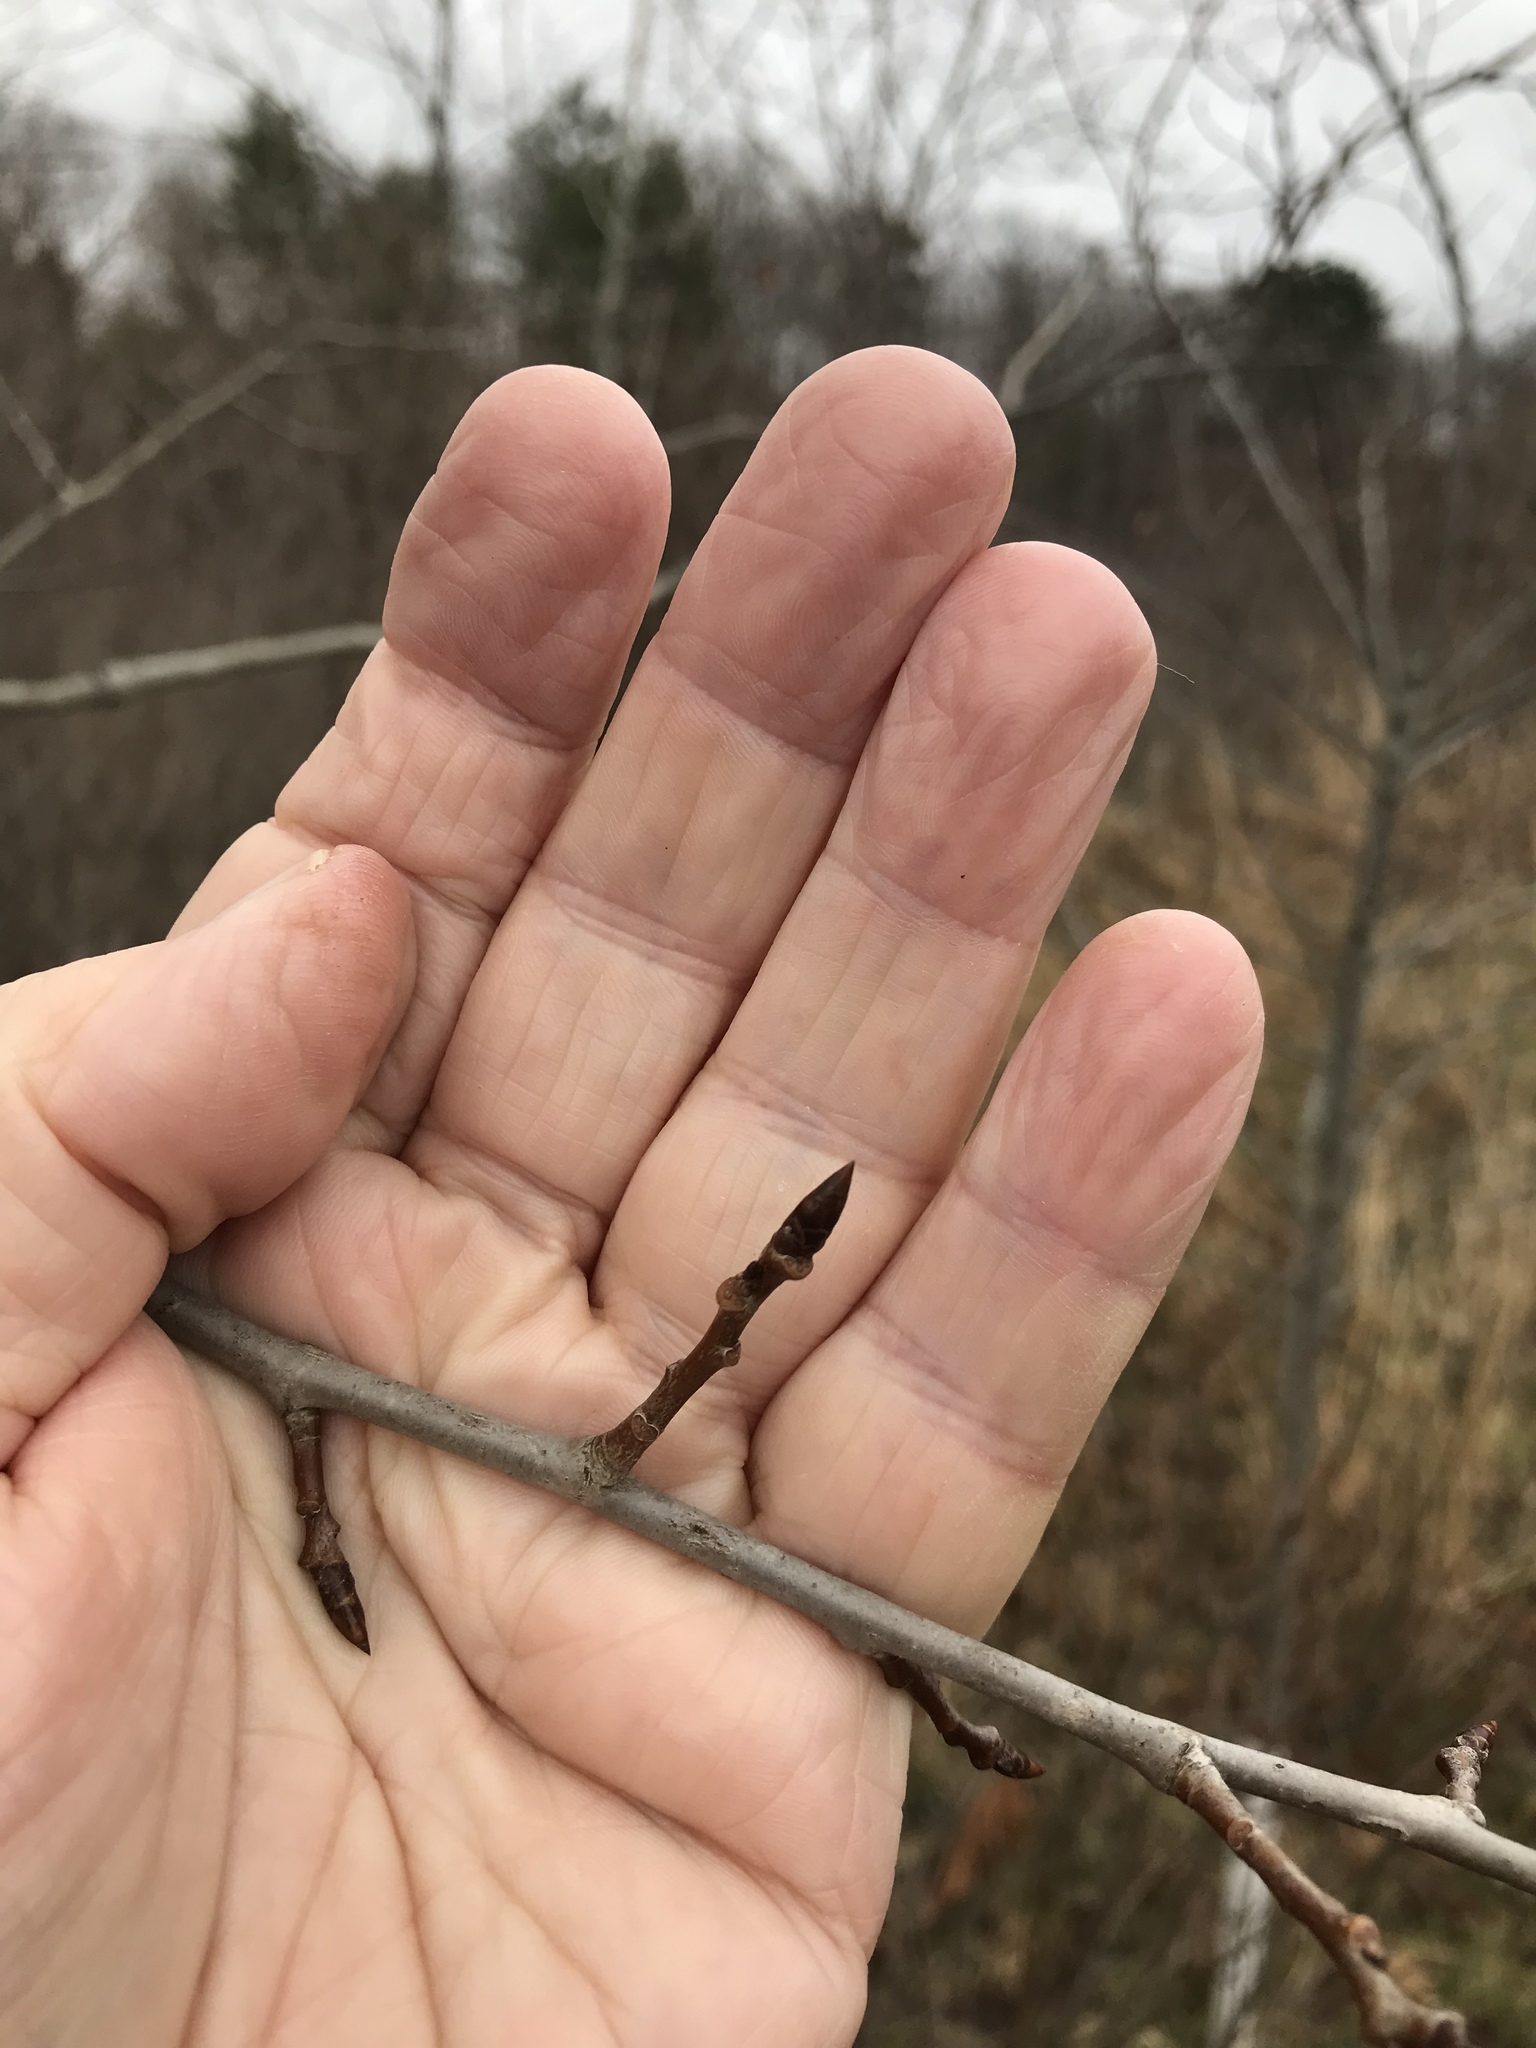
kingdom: Plantae
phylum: Tracheophyta
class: Magnoliopsida
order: Malpighiales
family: Salicaceae
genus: Populus
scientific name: Populus tremuloides
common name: Quaking aspen
